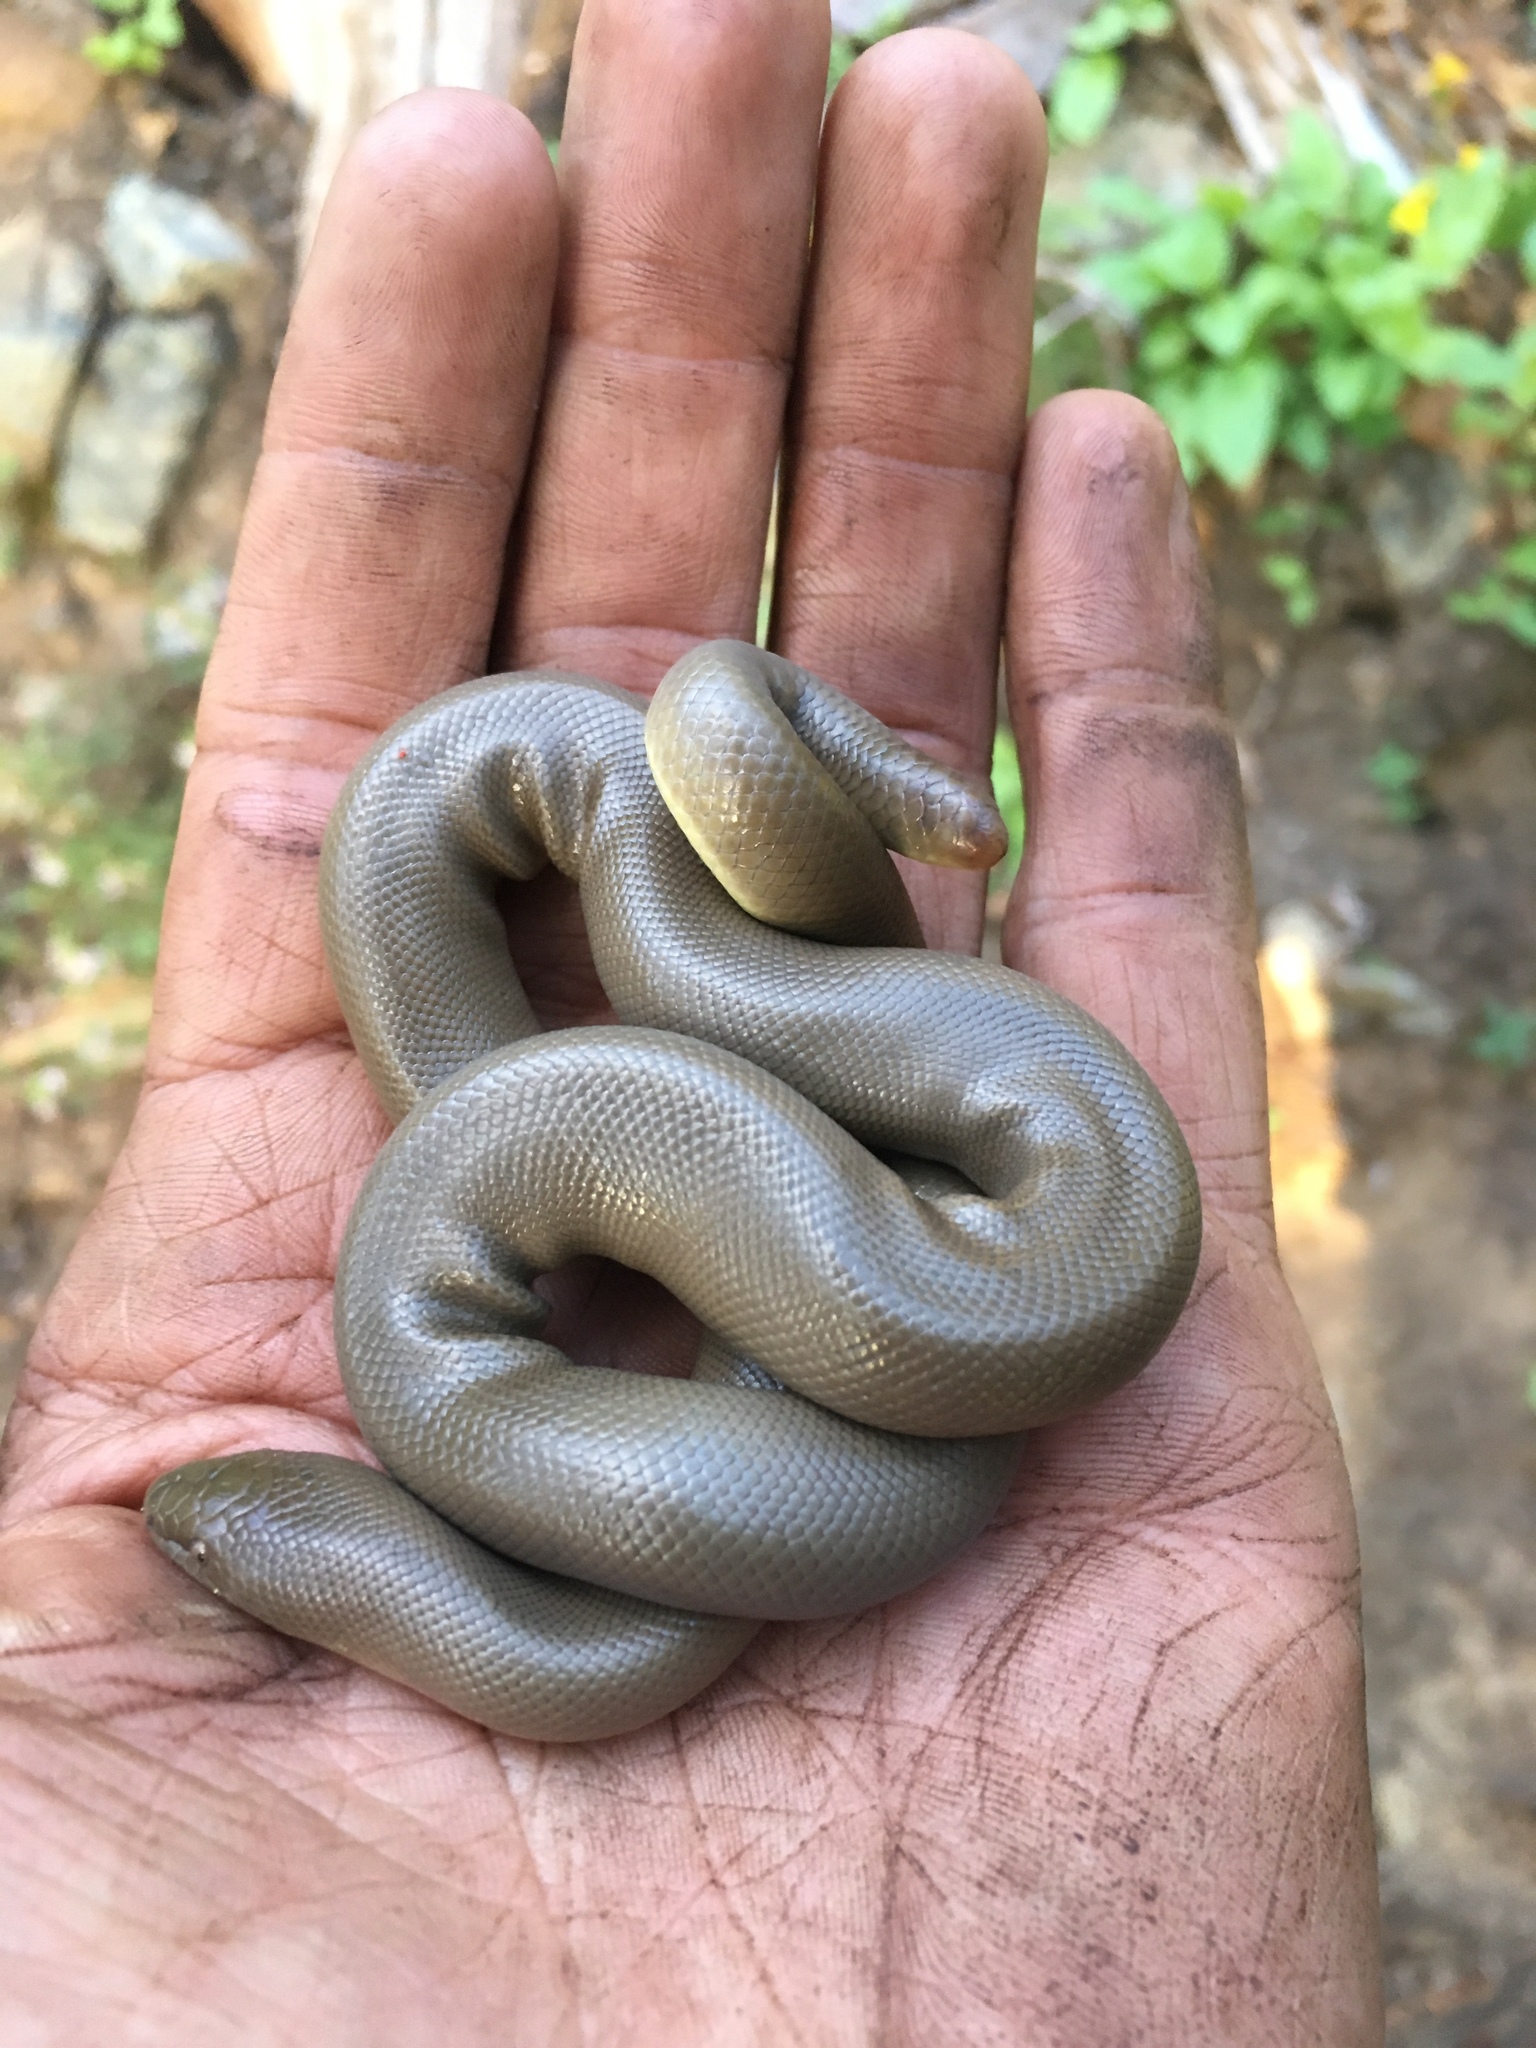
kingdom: Animalia
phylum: Chordata
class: Squamata
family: Boidae
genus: Charina
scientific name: Charina bottae
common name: Northern rubber boa
